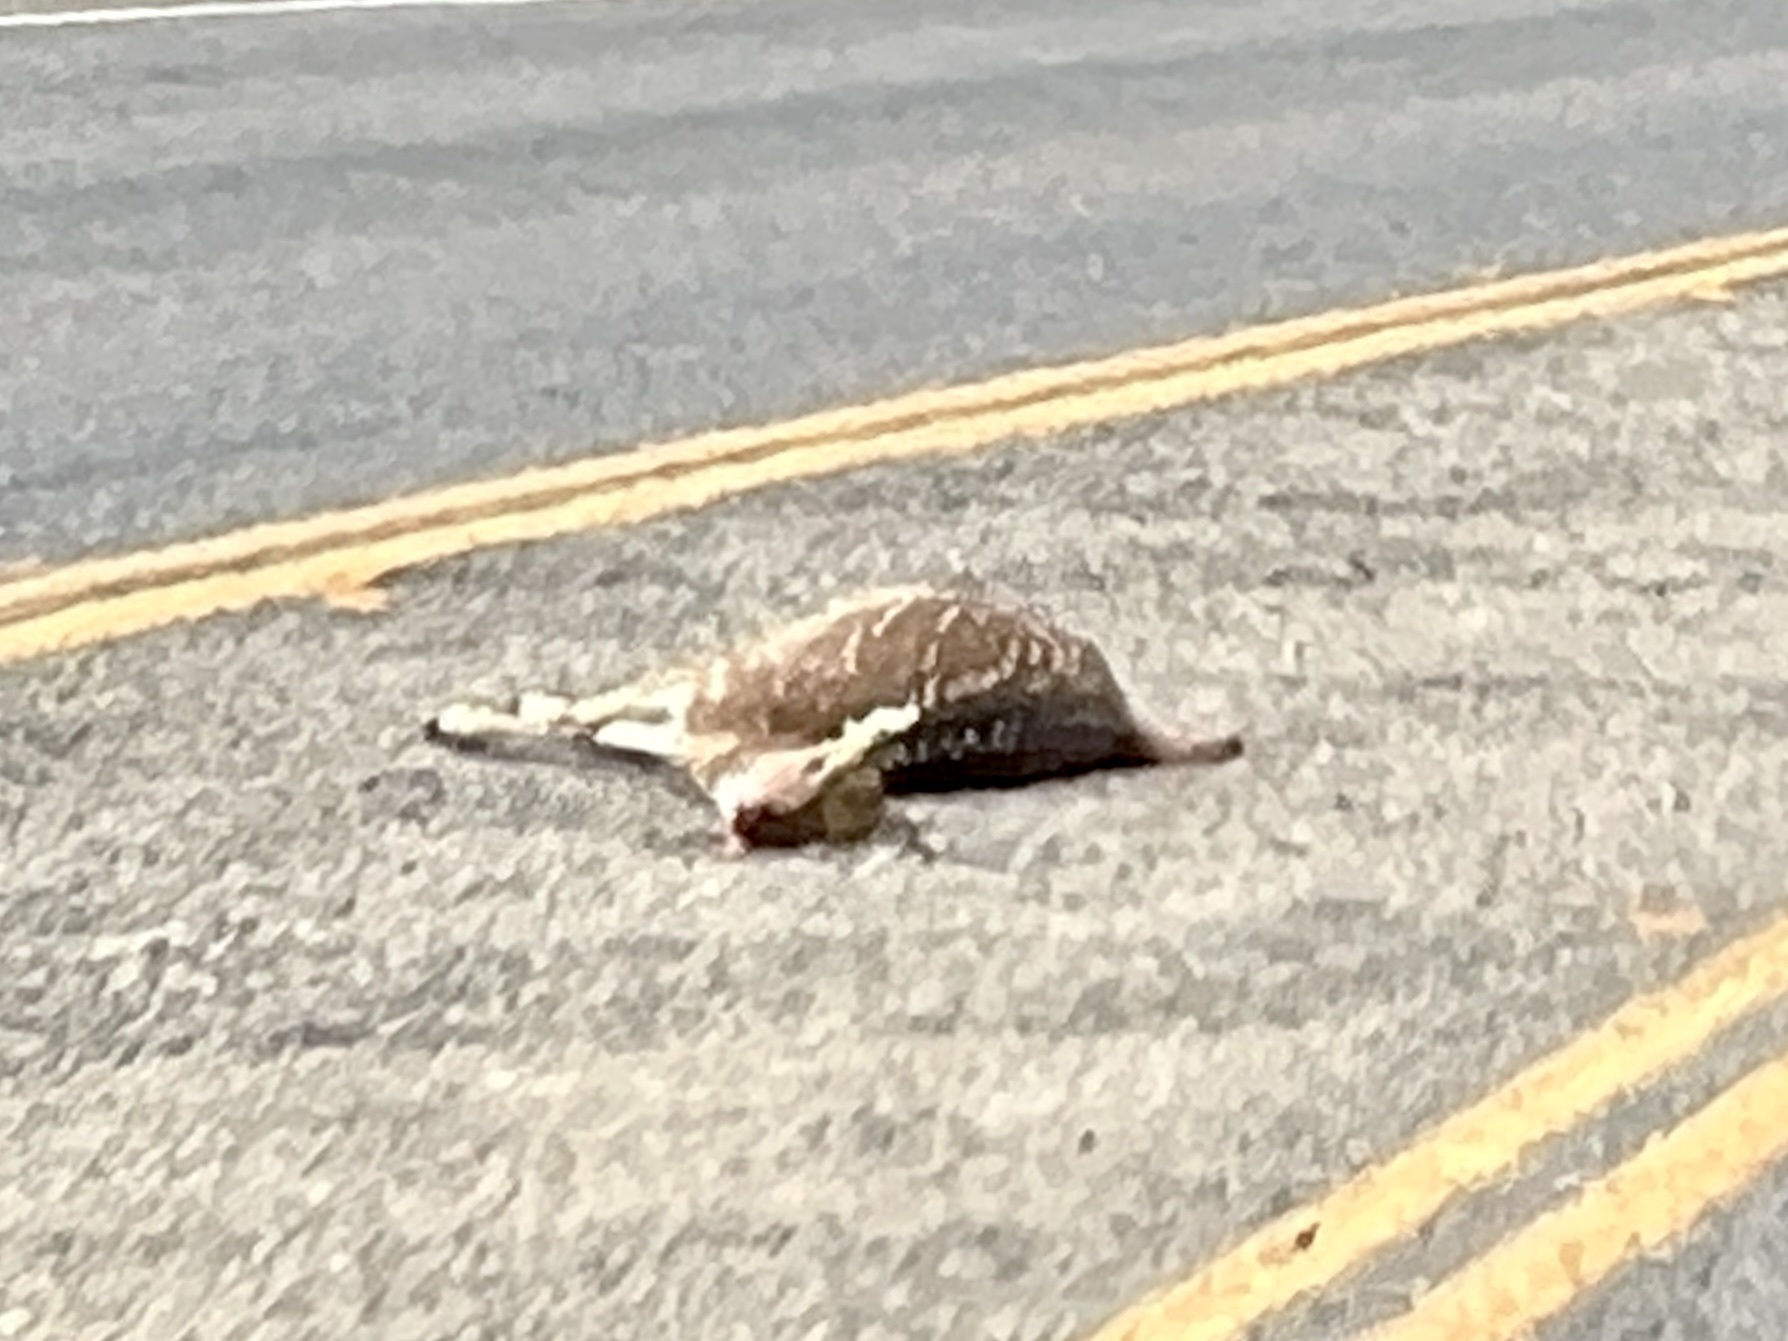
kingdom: Animalia
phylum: Chordata
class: Mammalia
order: Artiodactyla
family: Cervidae
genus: Axis
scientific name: Axis axis
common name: Chital
